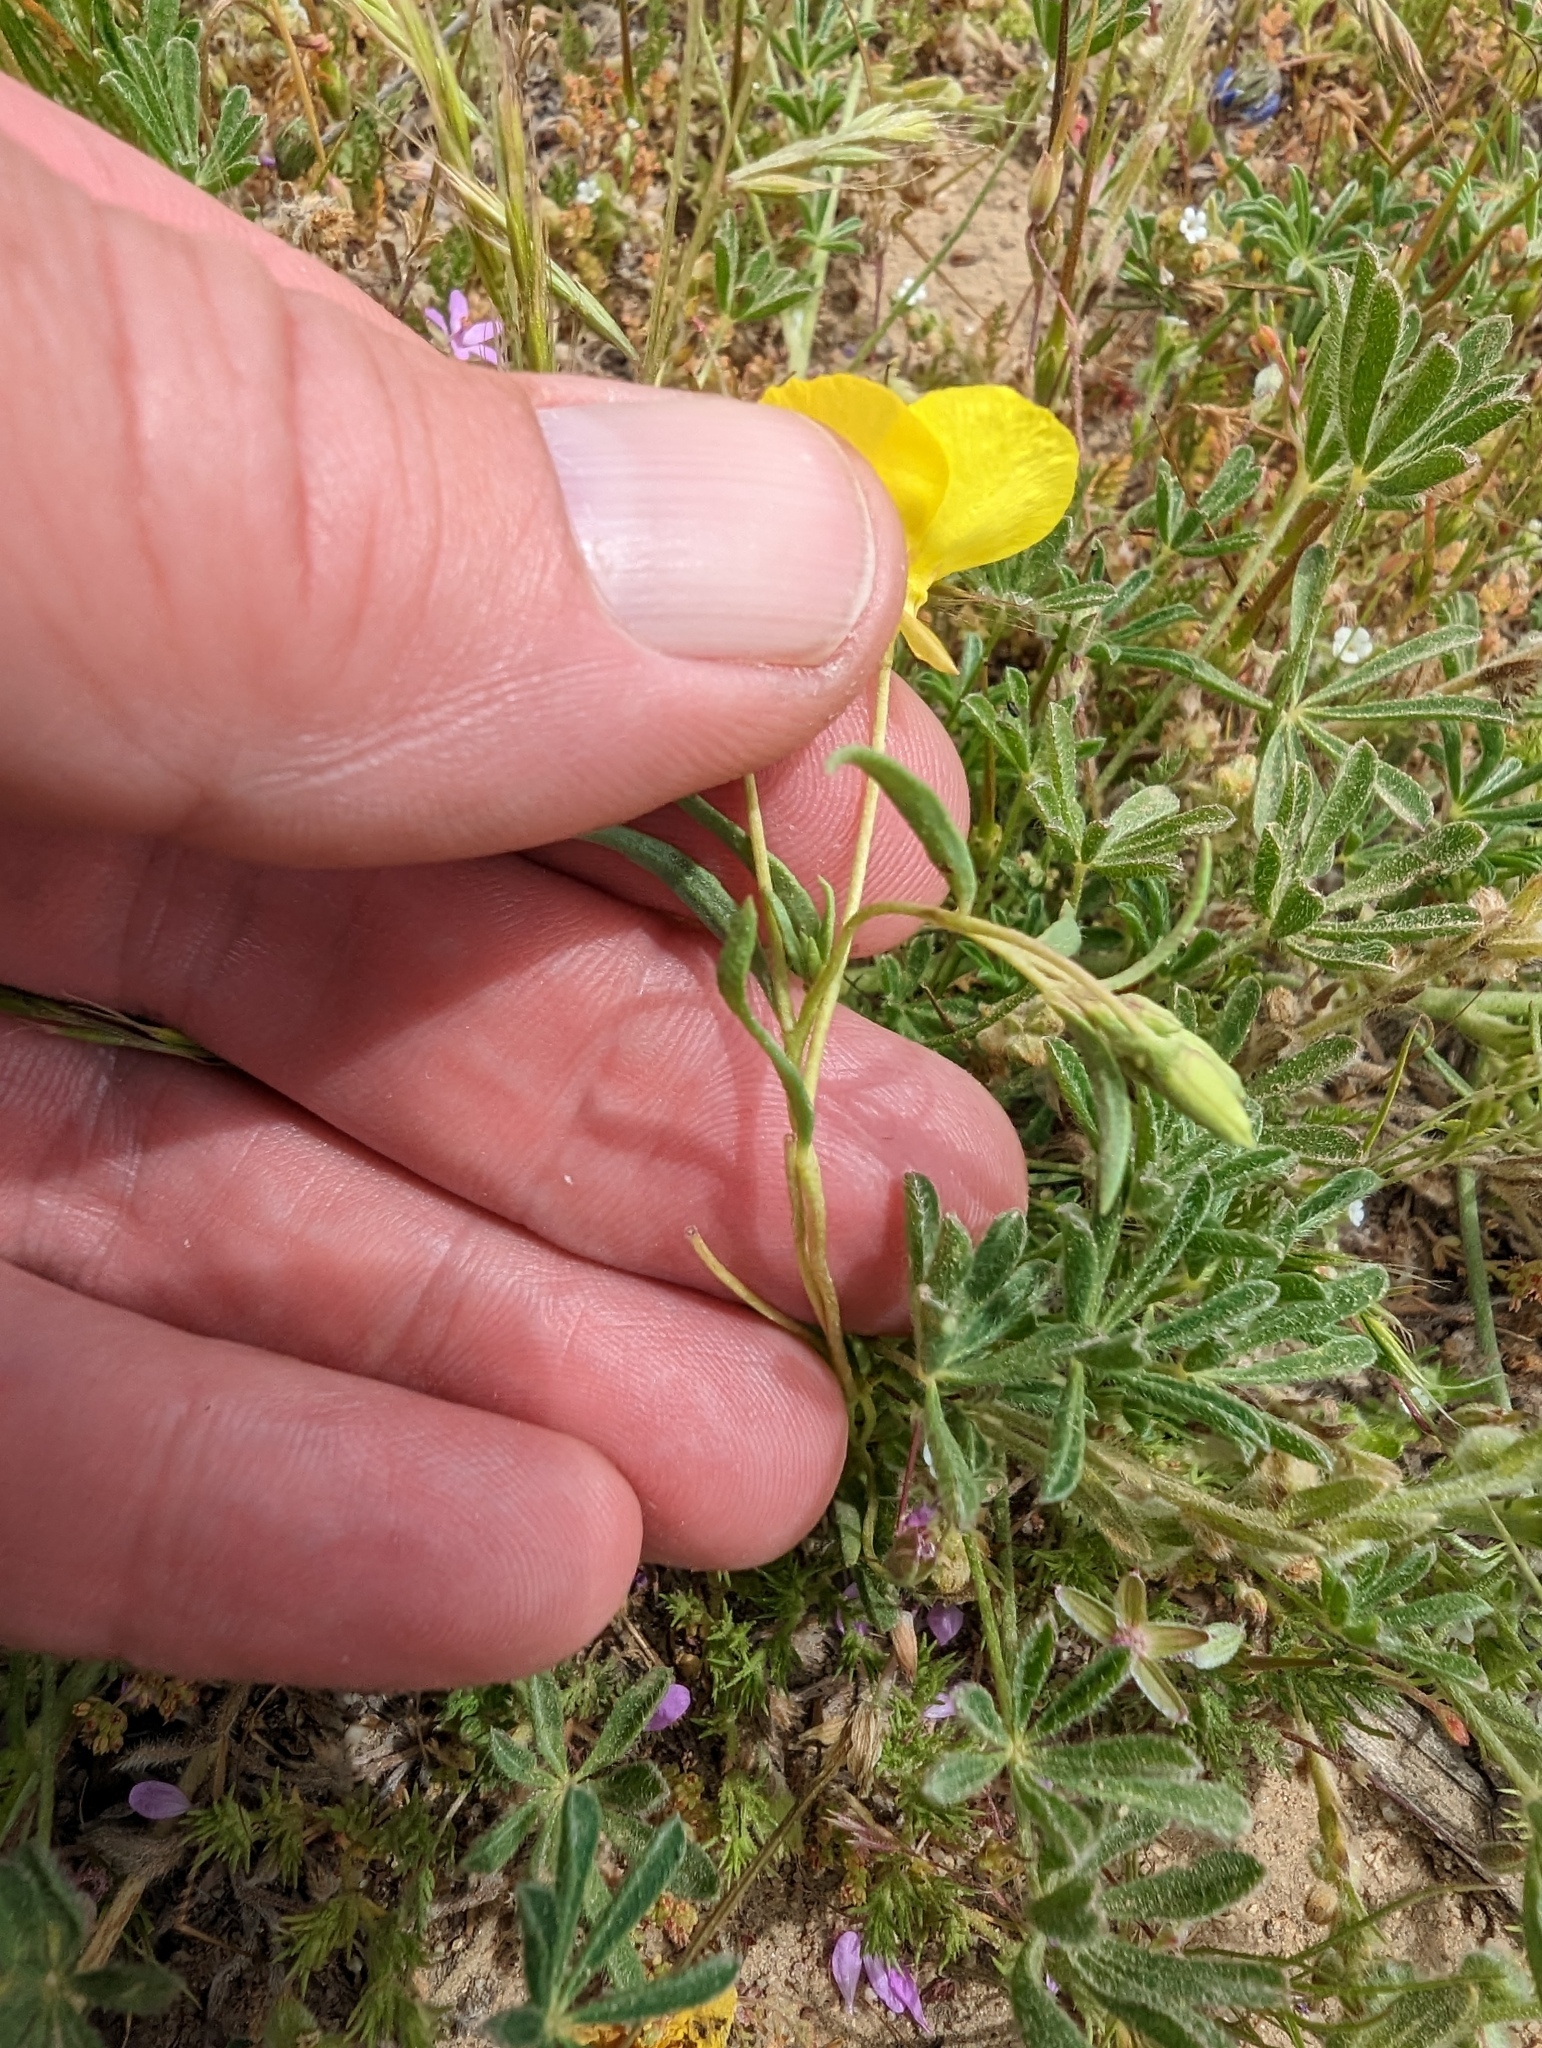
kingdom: Plantae
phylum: Tracheophyta
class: Magnoliopsida
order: Myrtales
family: Onagraceae
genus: Camissonia
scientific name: Camissonia campestris
